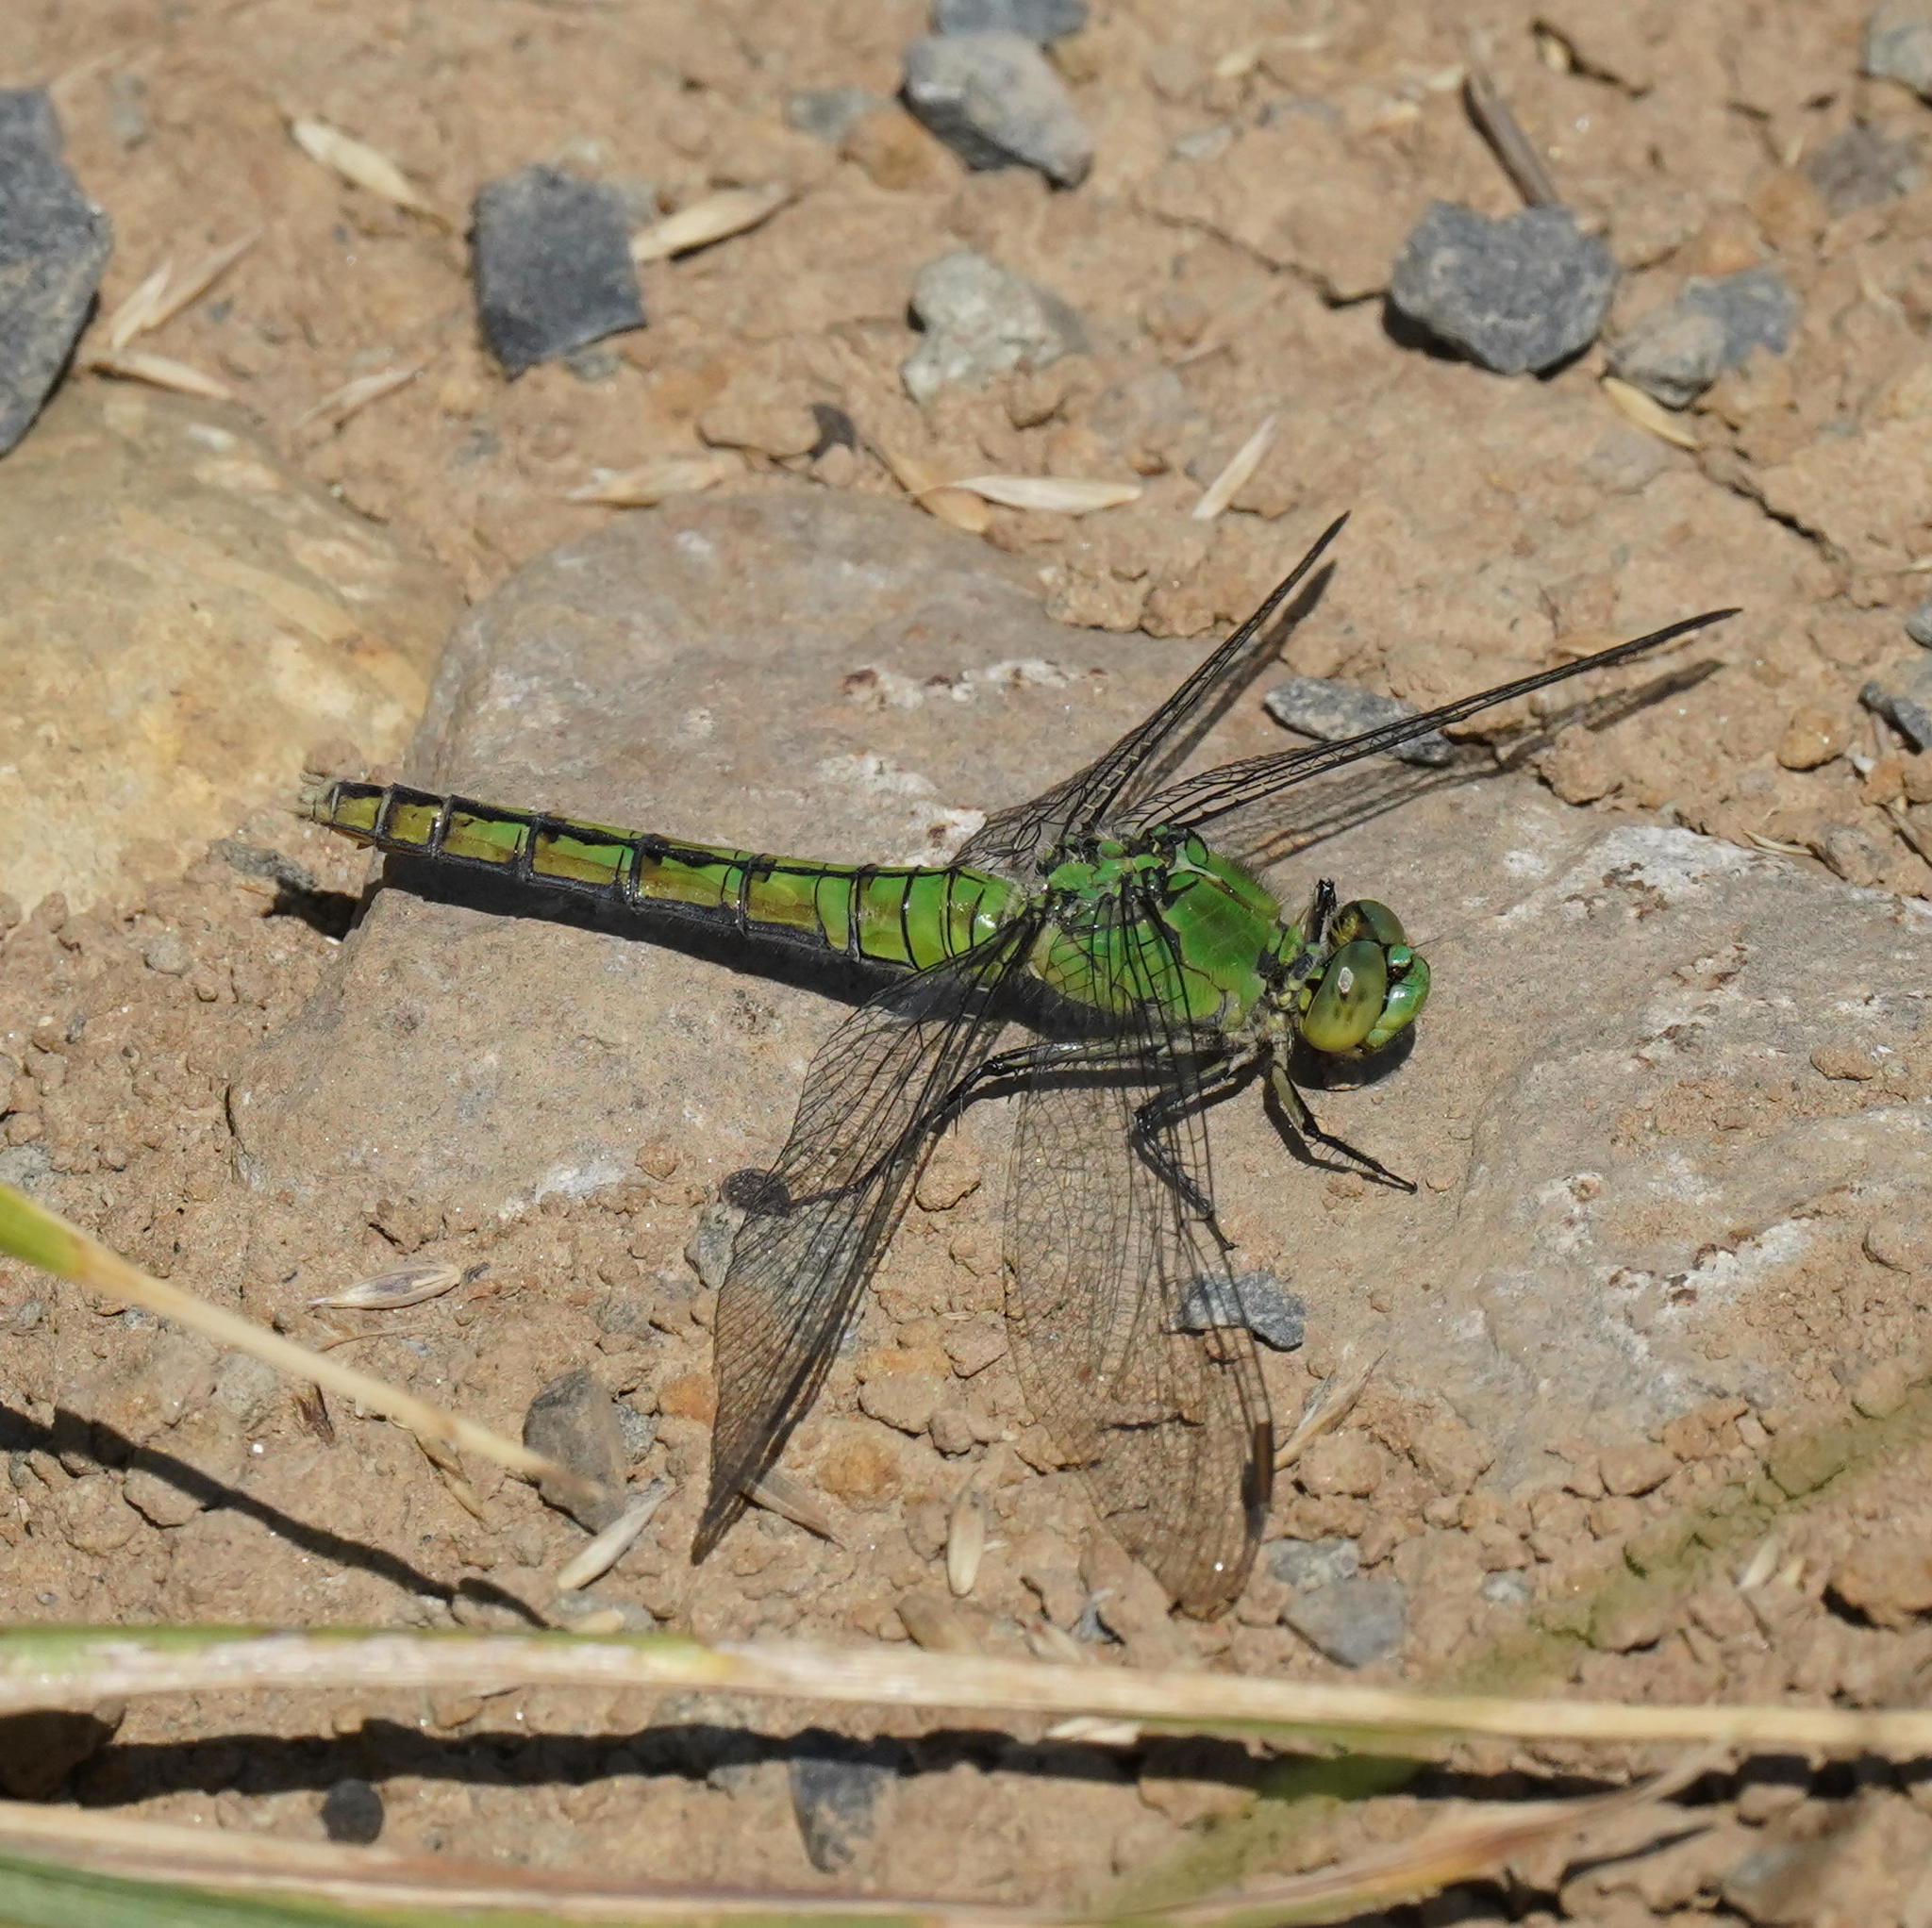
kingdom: Animalia
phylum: Arthropoda
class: Insecta
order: Odonata
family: Libellulidae
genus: Erythemis
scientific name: Erythemis collocata
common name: Western pondhawk
